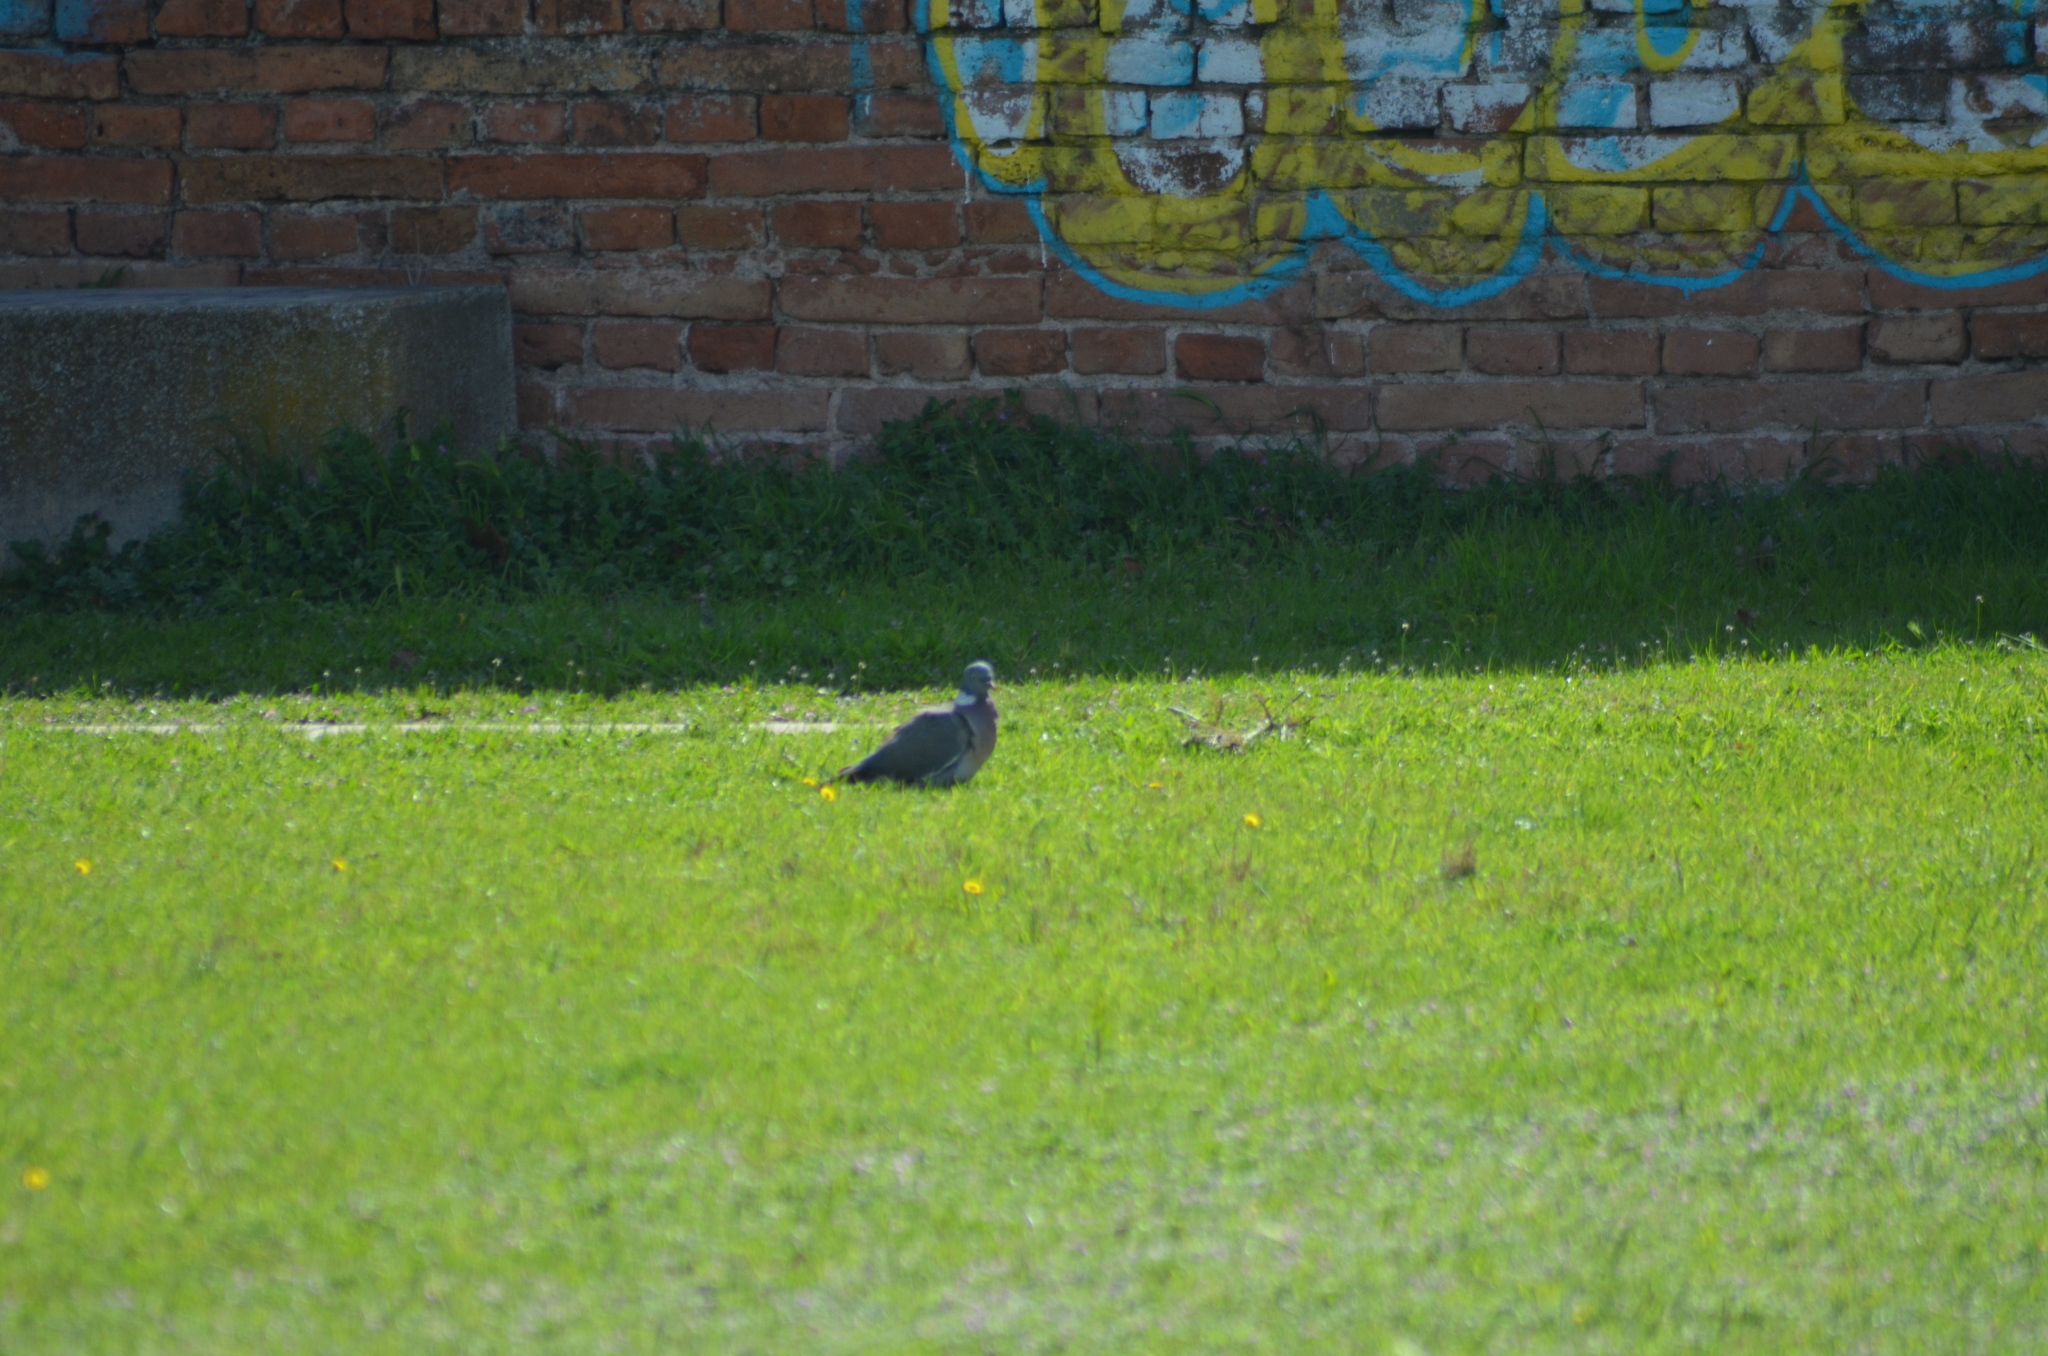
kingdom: Animalia
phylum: Chordata
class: Aves
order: Columbiformes
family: Columbidae
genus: Columba
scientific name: Columba palumbus
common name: Common wood pigeon
